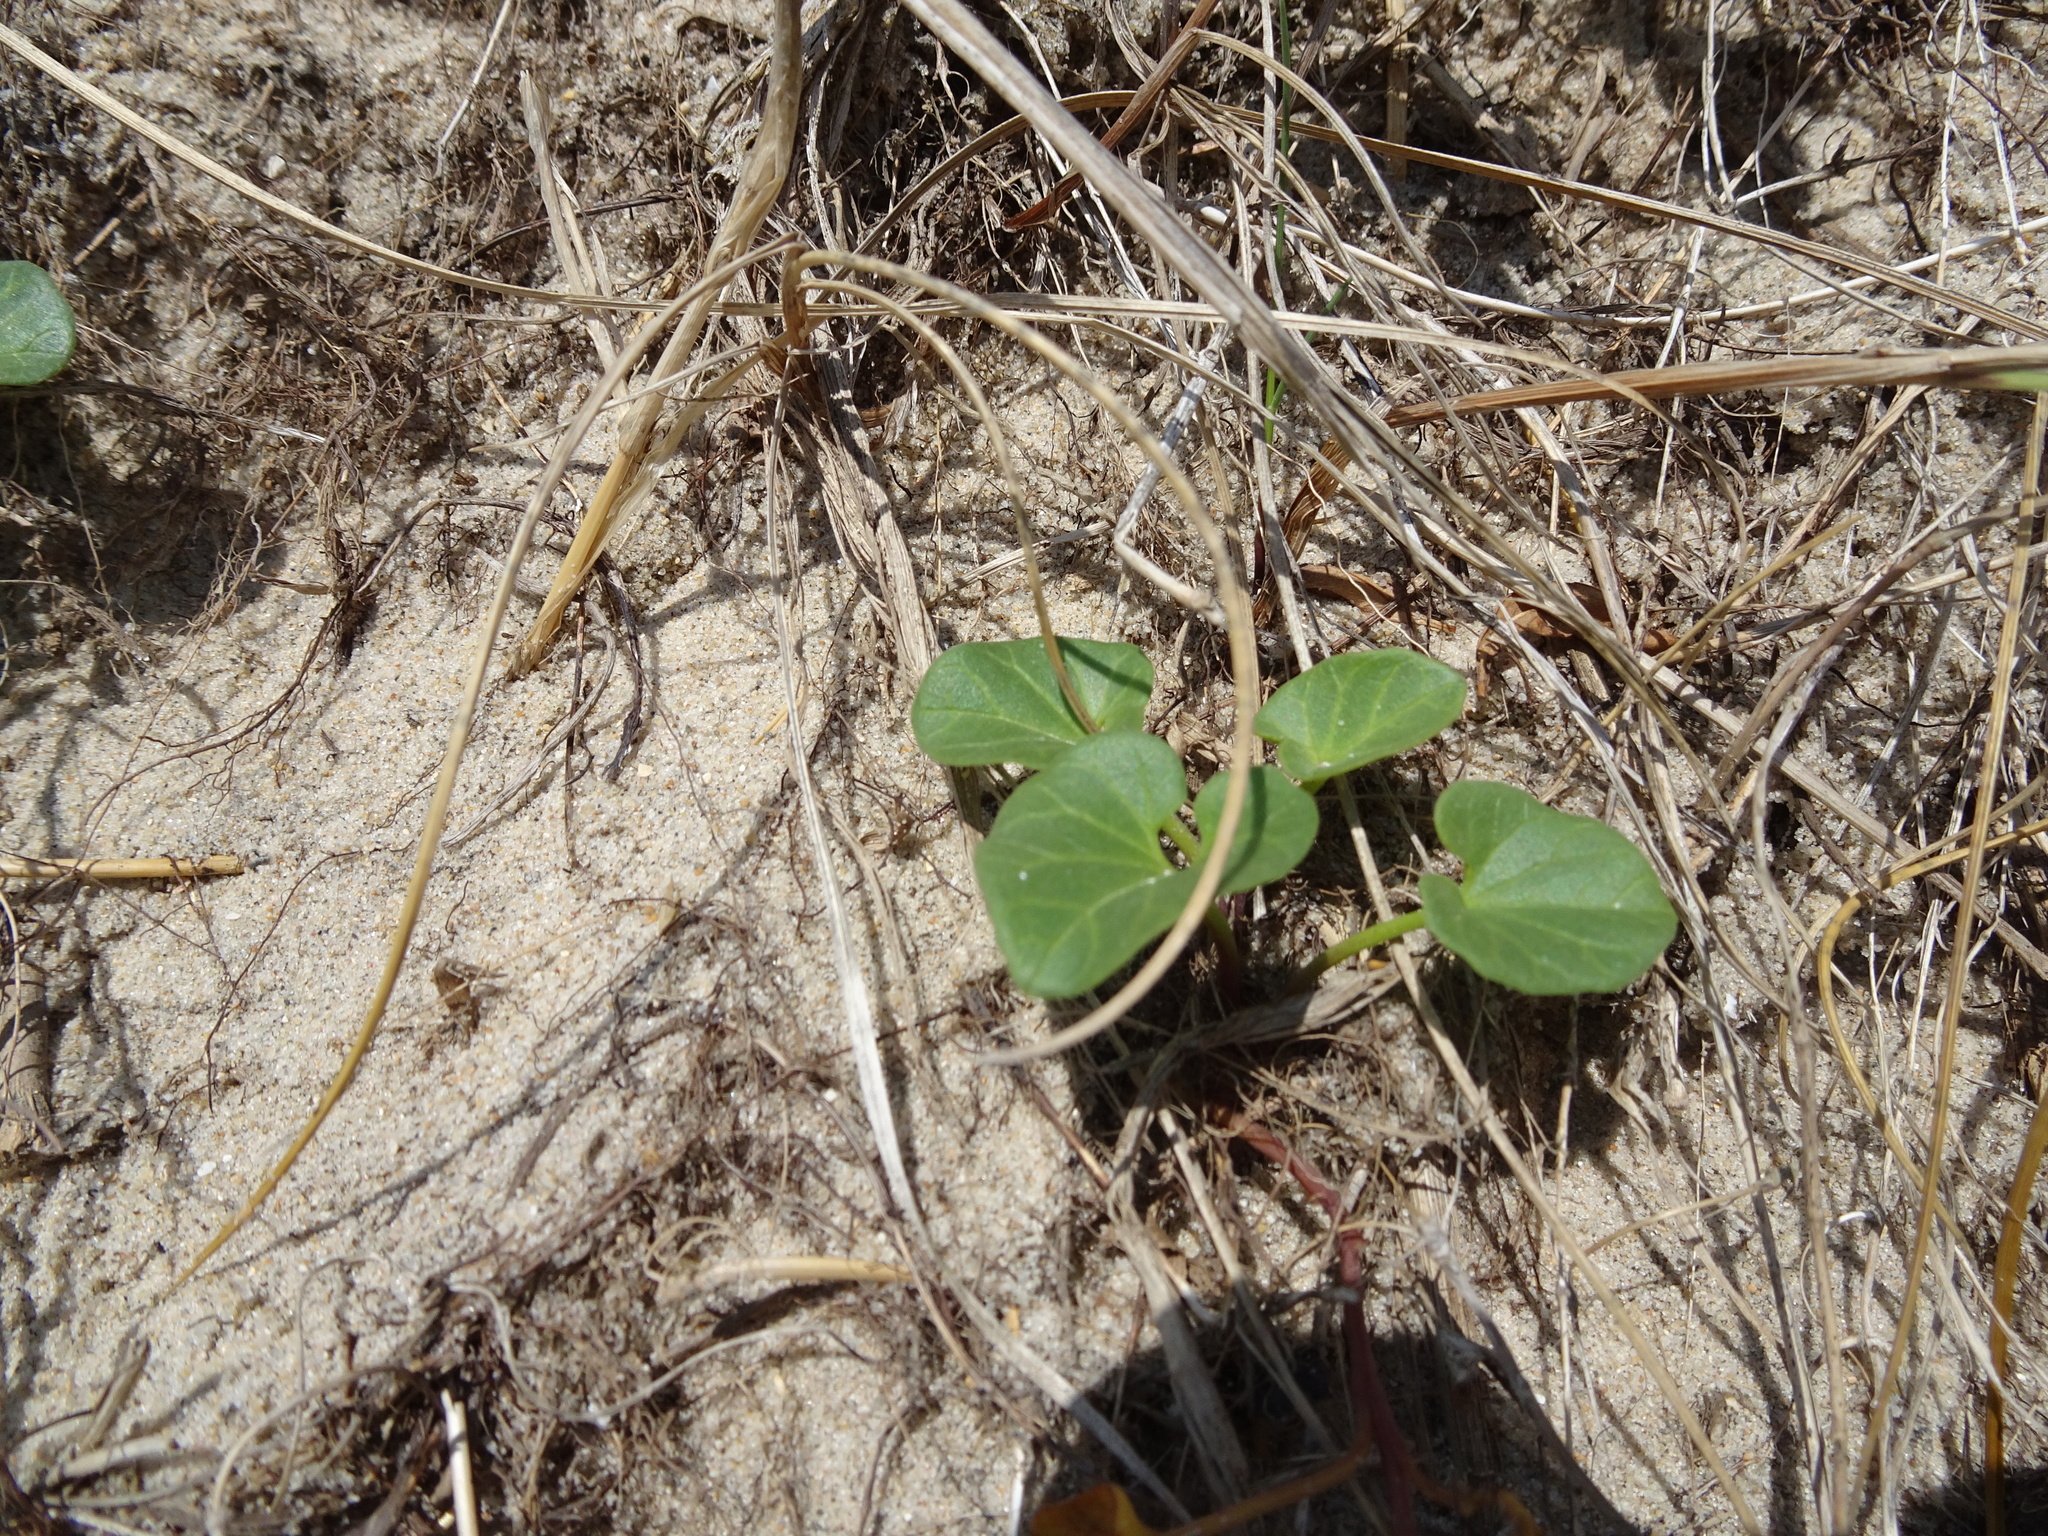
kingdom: Plantae
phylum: Tracheophyta
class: Magnoliopsida
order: Solanales
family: Convolvulaceae
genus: Calystegia
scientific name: Calystegia soldanella
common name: Sea bindweed
